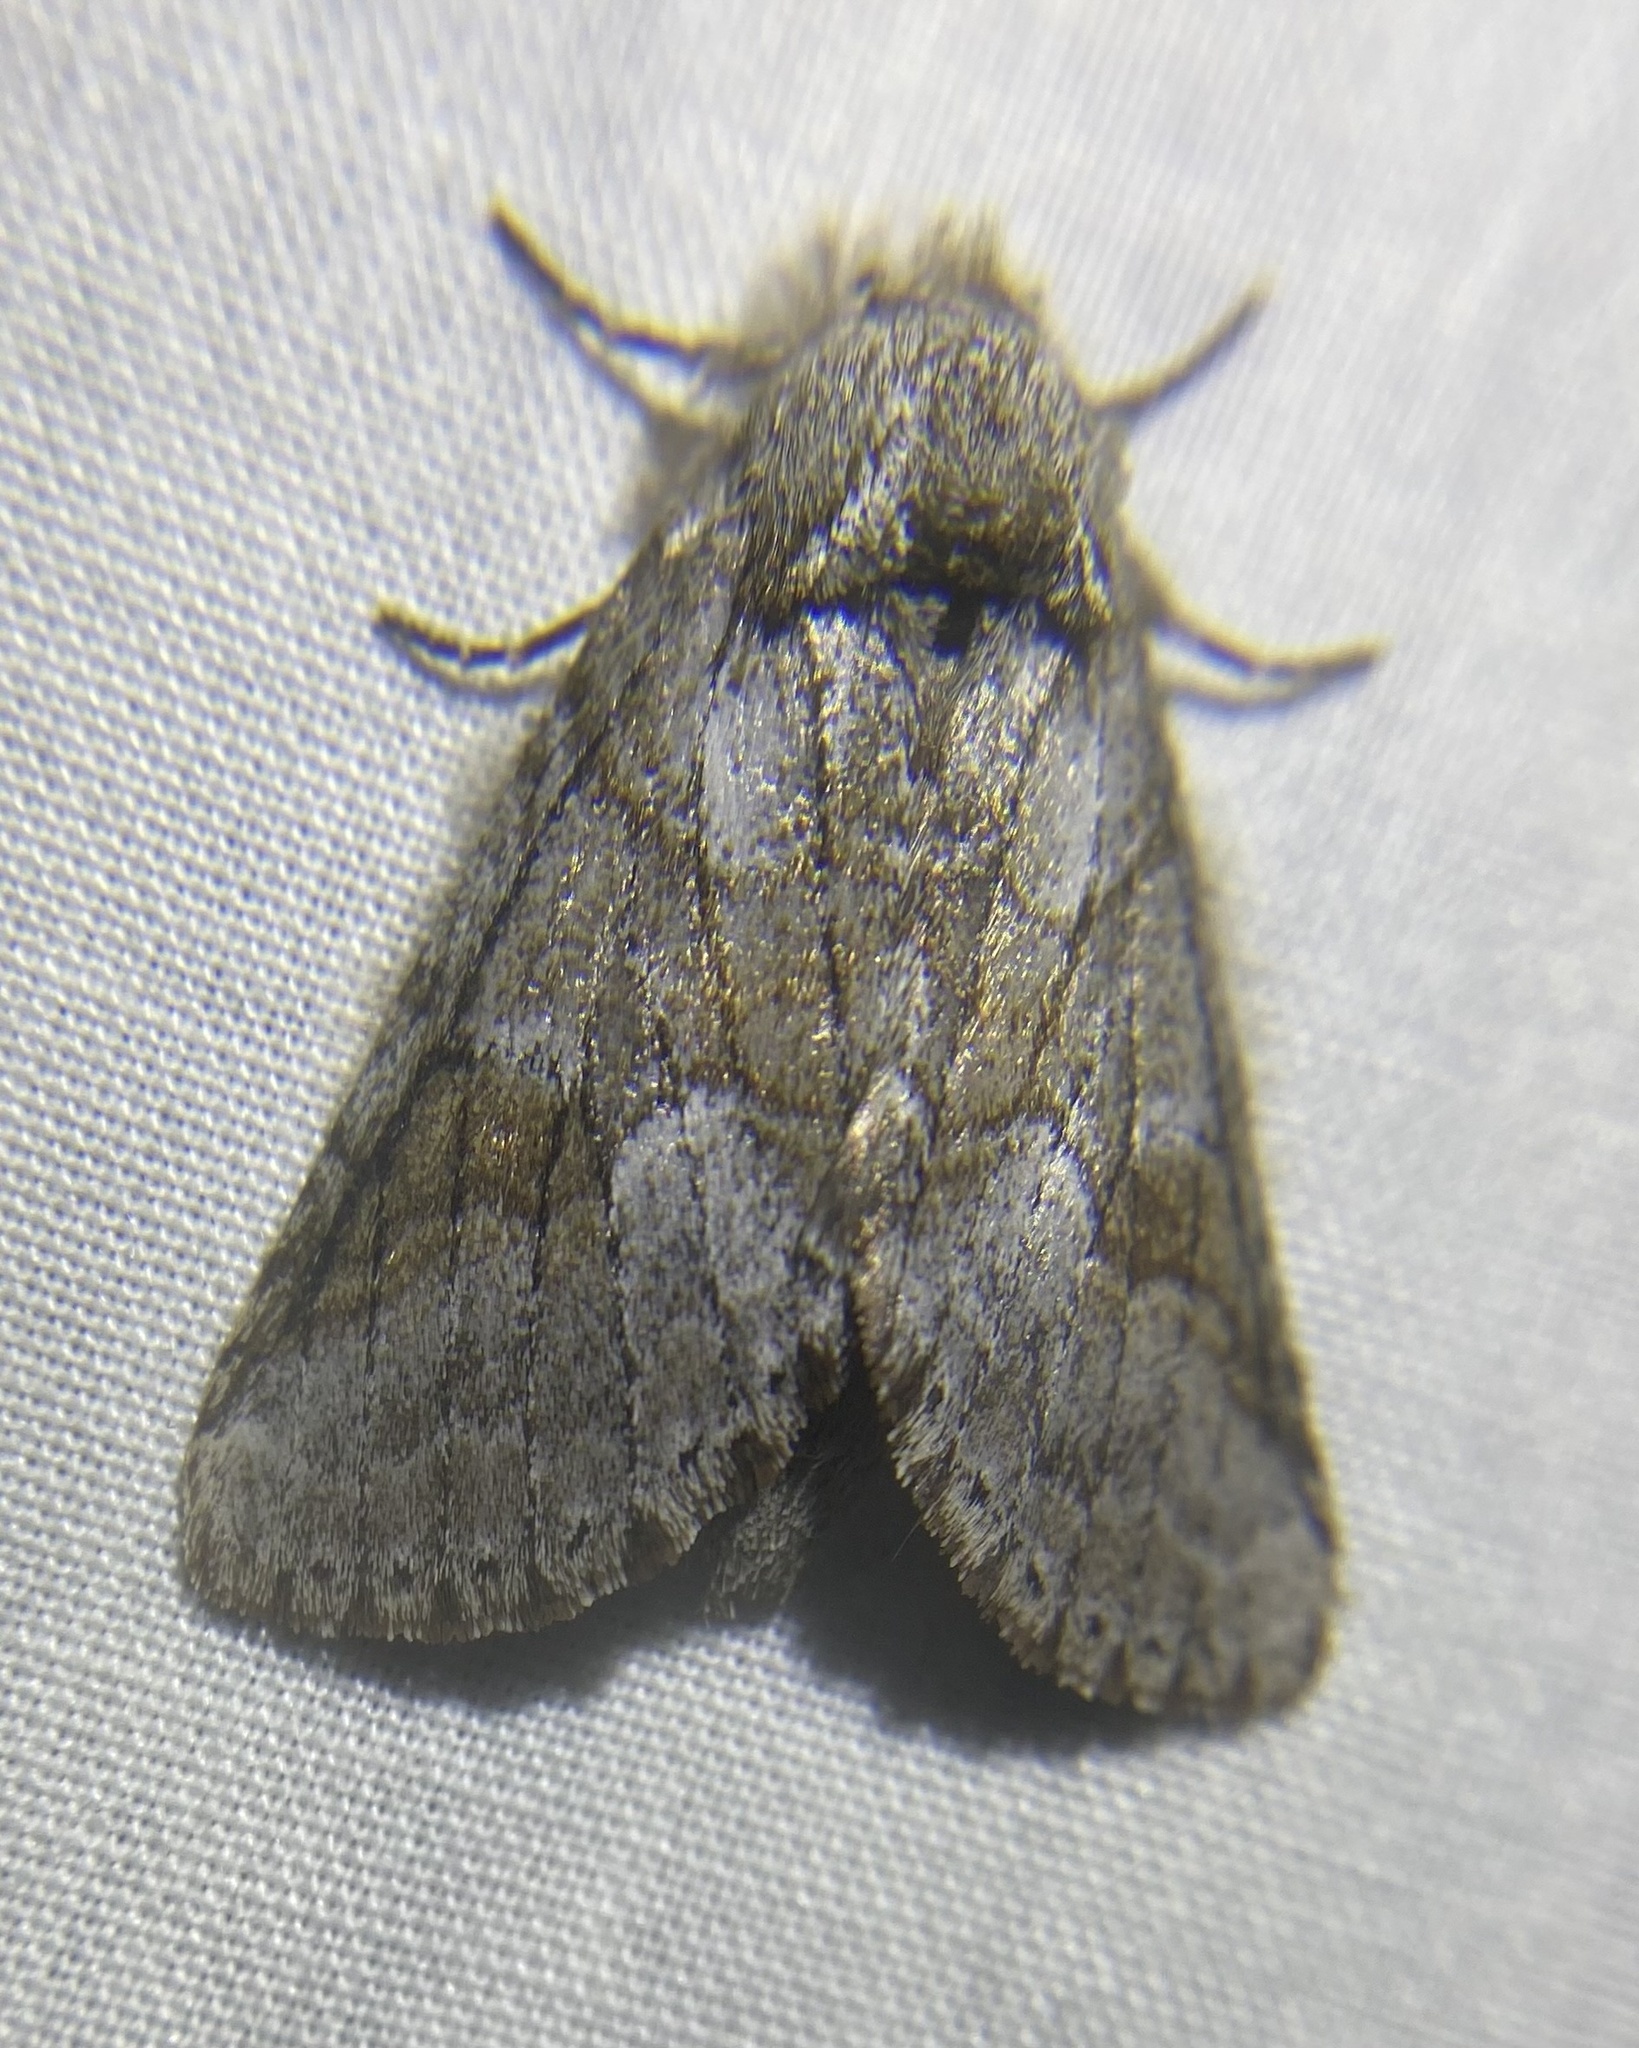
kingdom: Animalia
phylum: Arthropoda
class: Insecta
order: Lepidoptera
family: Notodontidae
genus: Lochmaeus
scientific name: Lochmaeus bilineata
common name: Double-lined prominent
